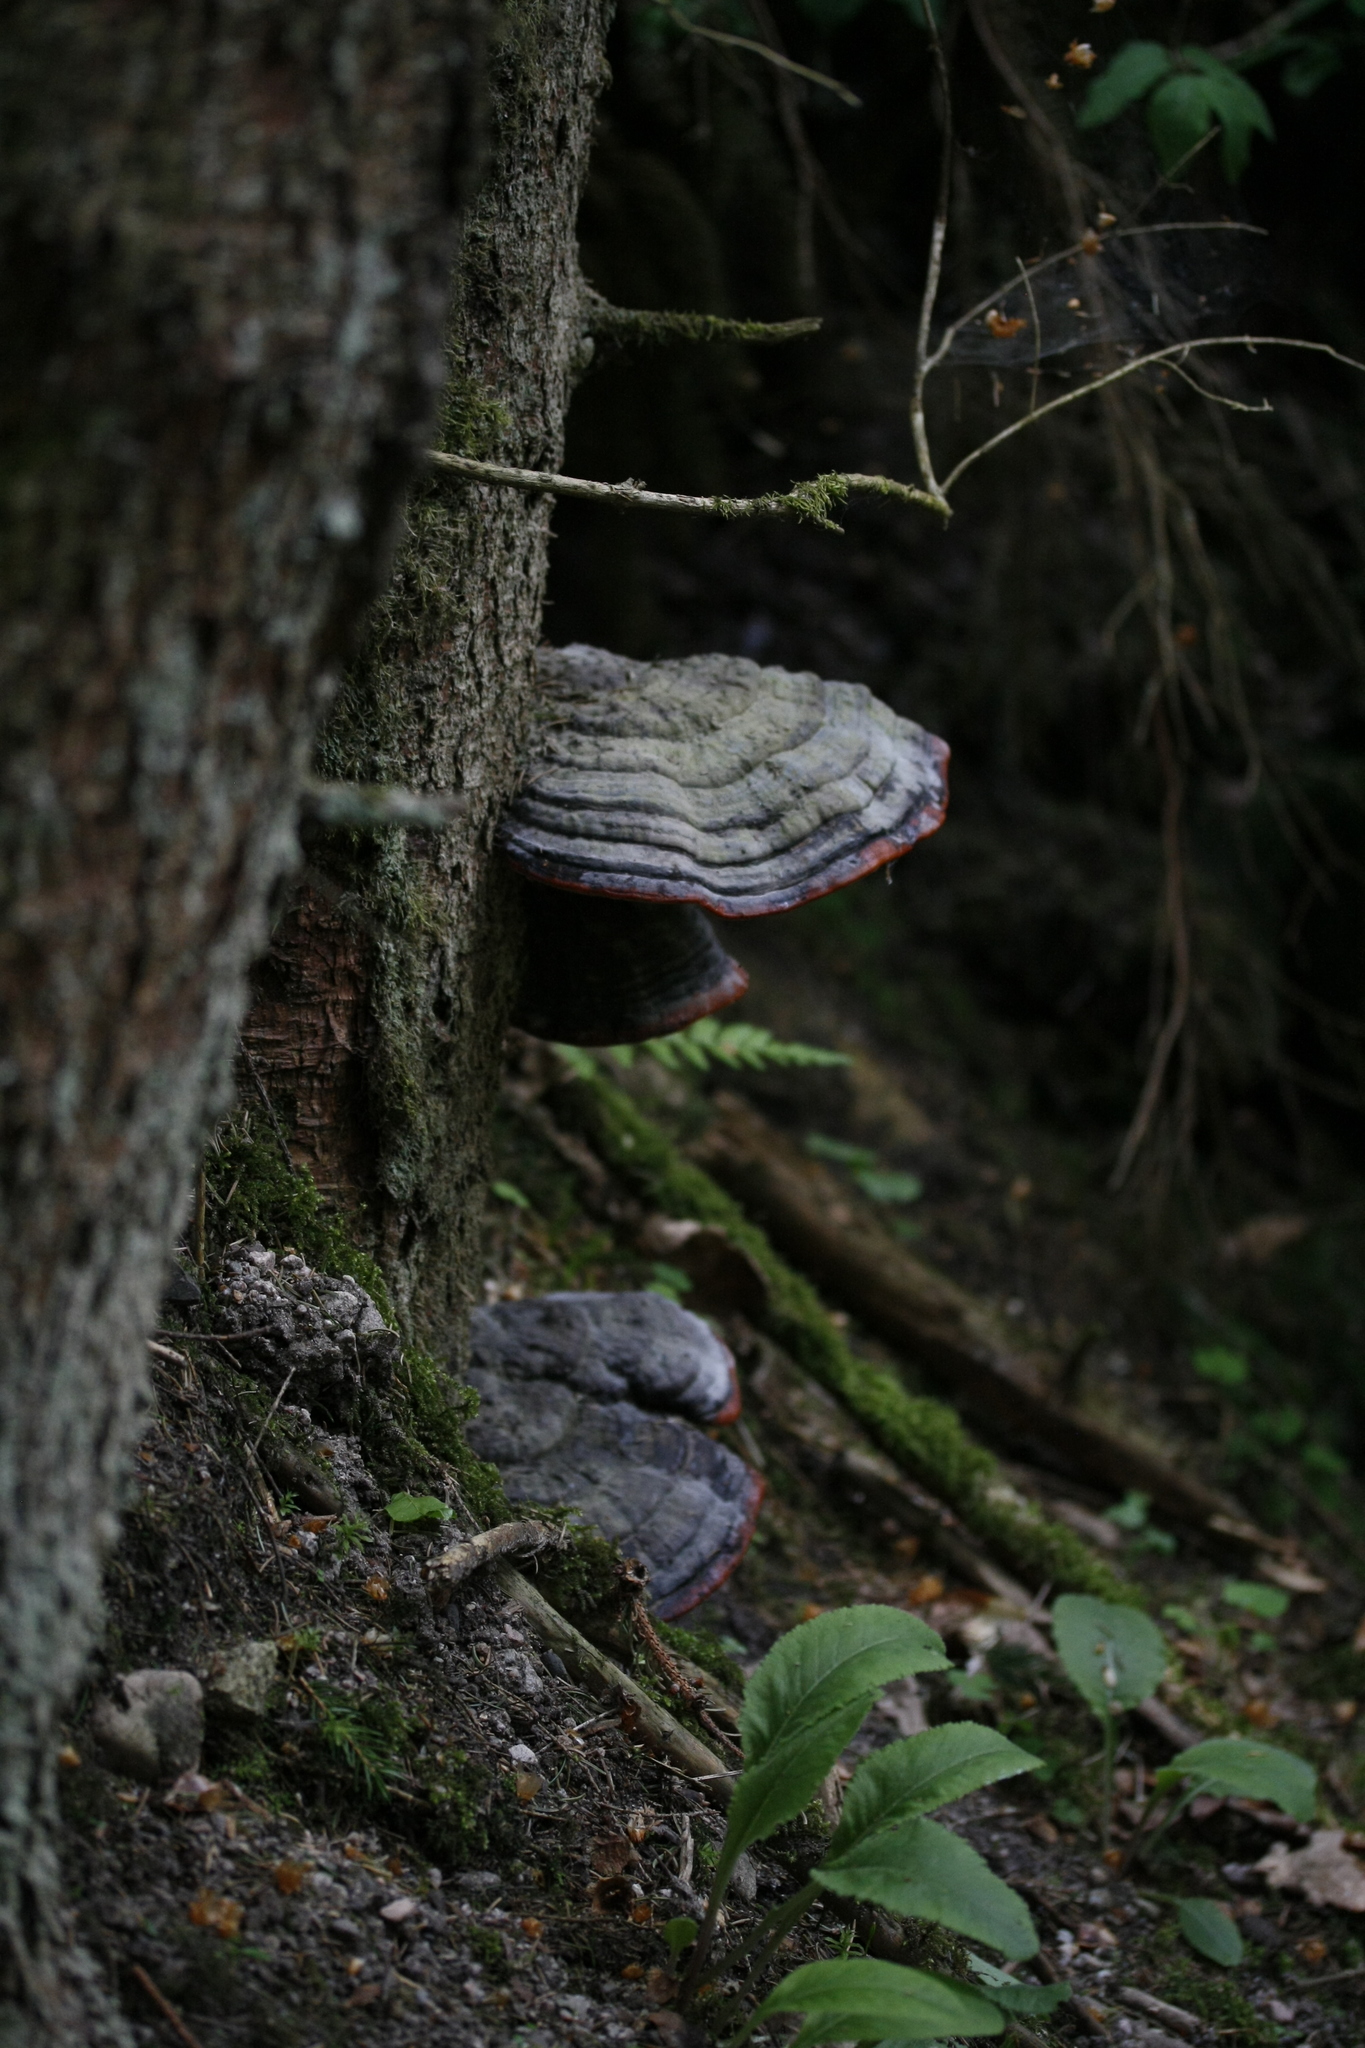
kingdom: Fungi
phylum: Basidiomycota
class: Agaricomycetes
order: Polyporales
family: Fomitopsidaceae
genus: Fomitopsis
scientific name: Fomitopsis pinicola
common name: Red-belted bracket
